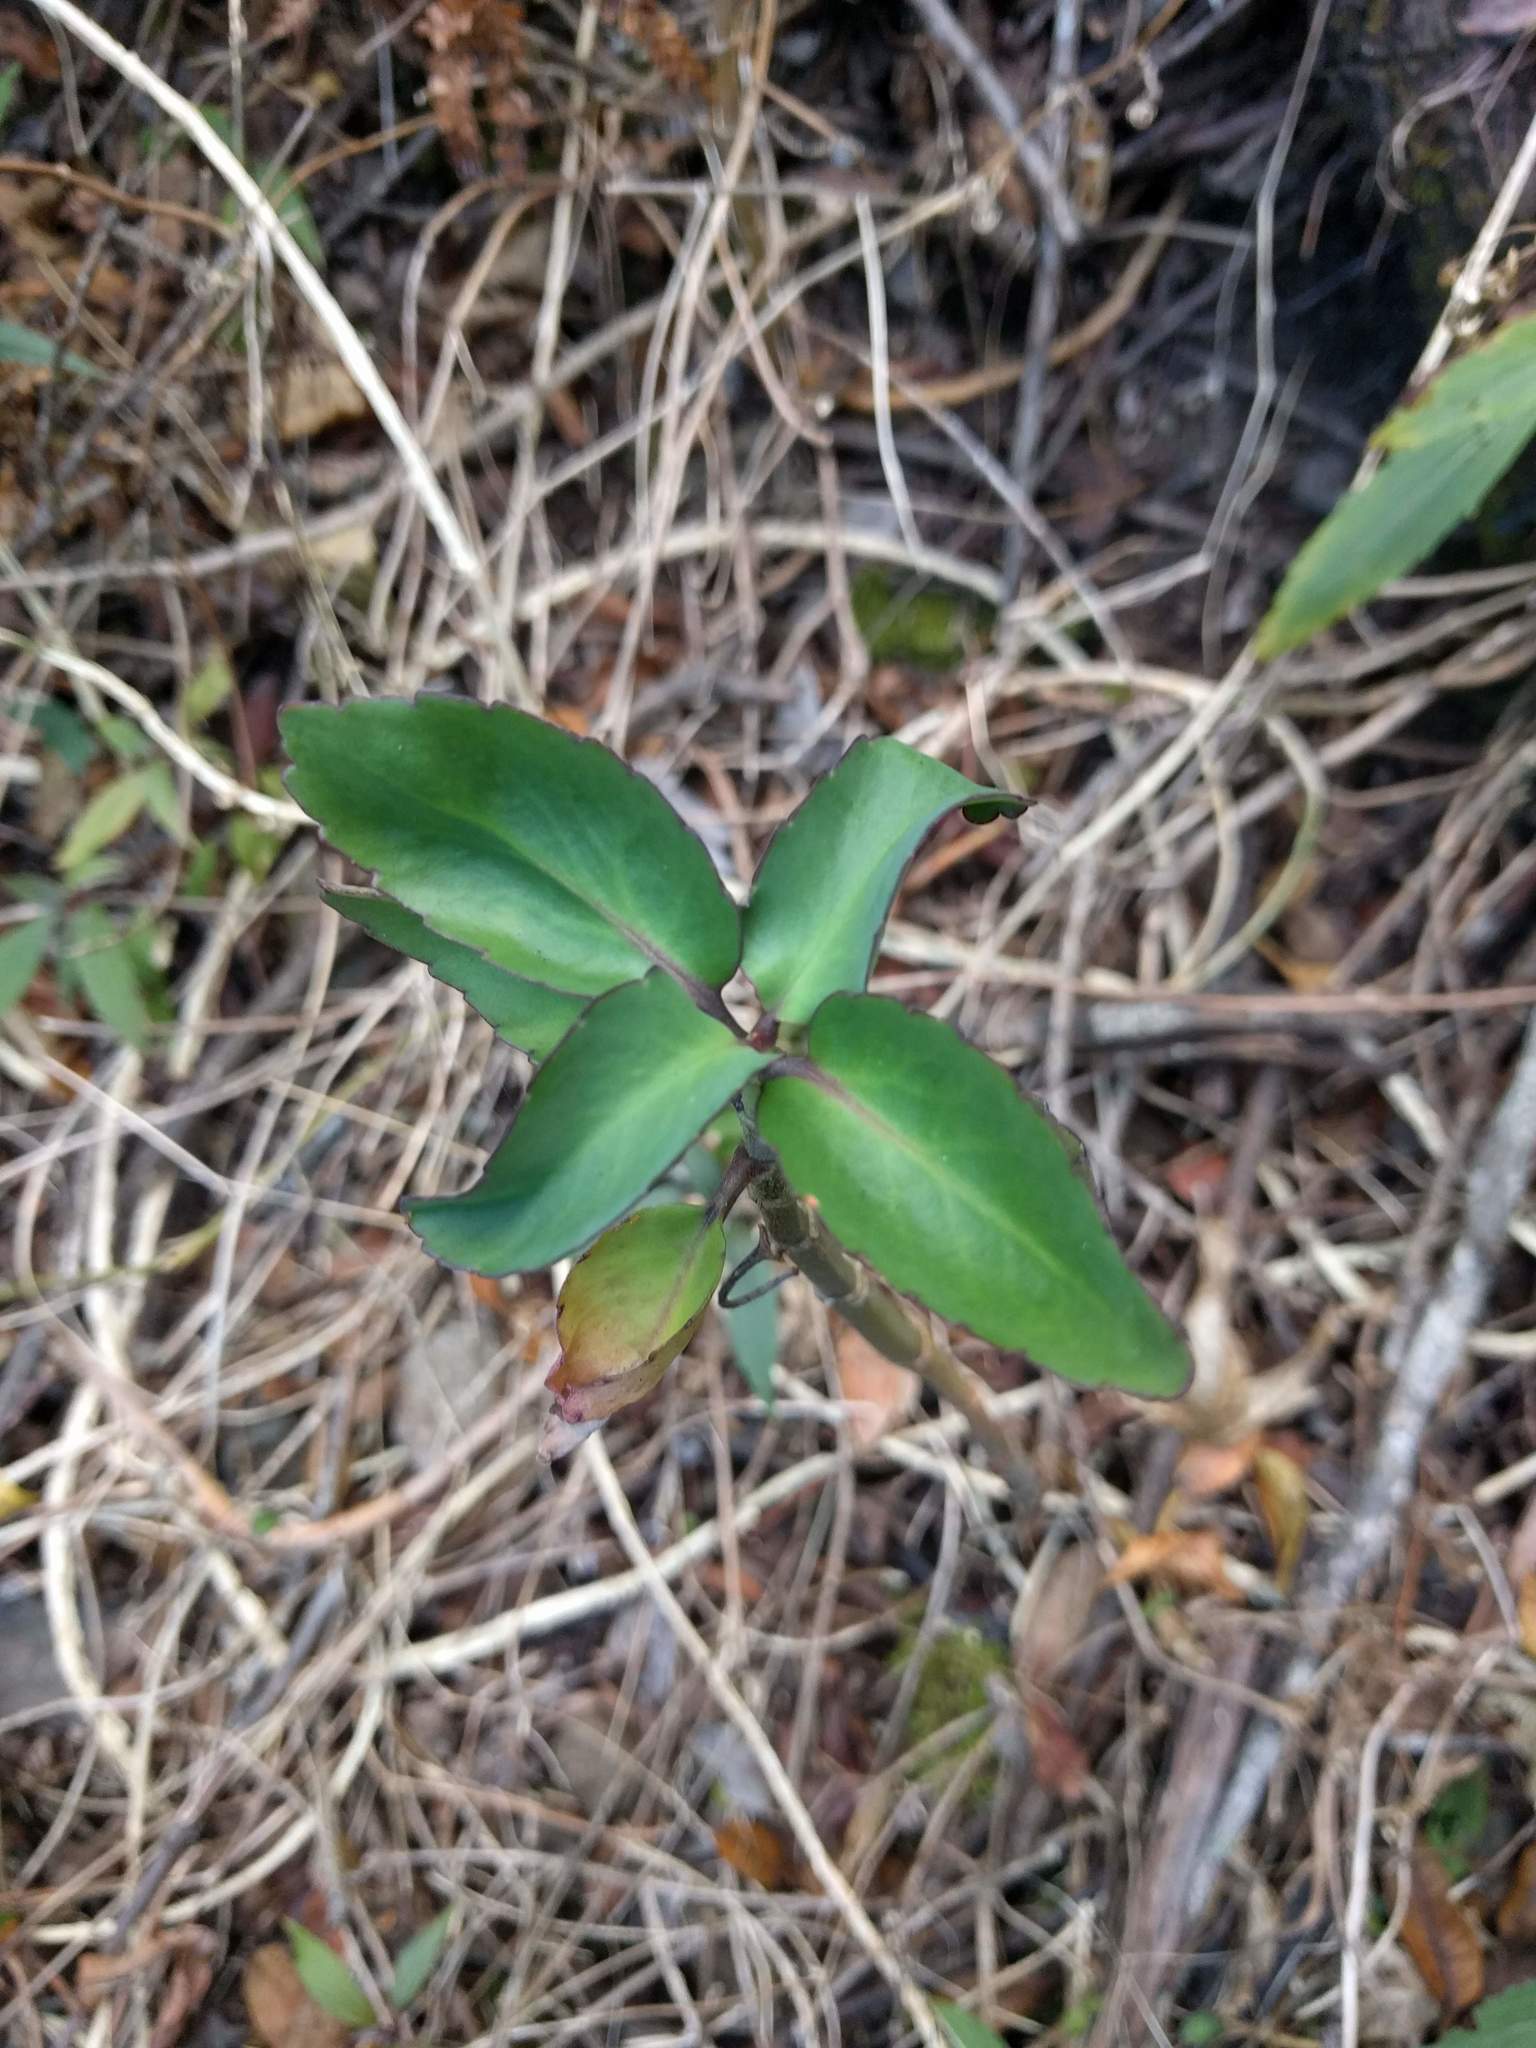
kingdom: Plantae
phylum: Tracheophyta
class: Magnoliopsida
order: Saxifragales
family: Crassulaceae
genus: Kalanchoe
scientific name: Kalanchoe pinnata
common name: Cathedral bells
